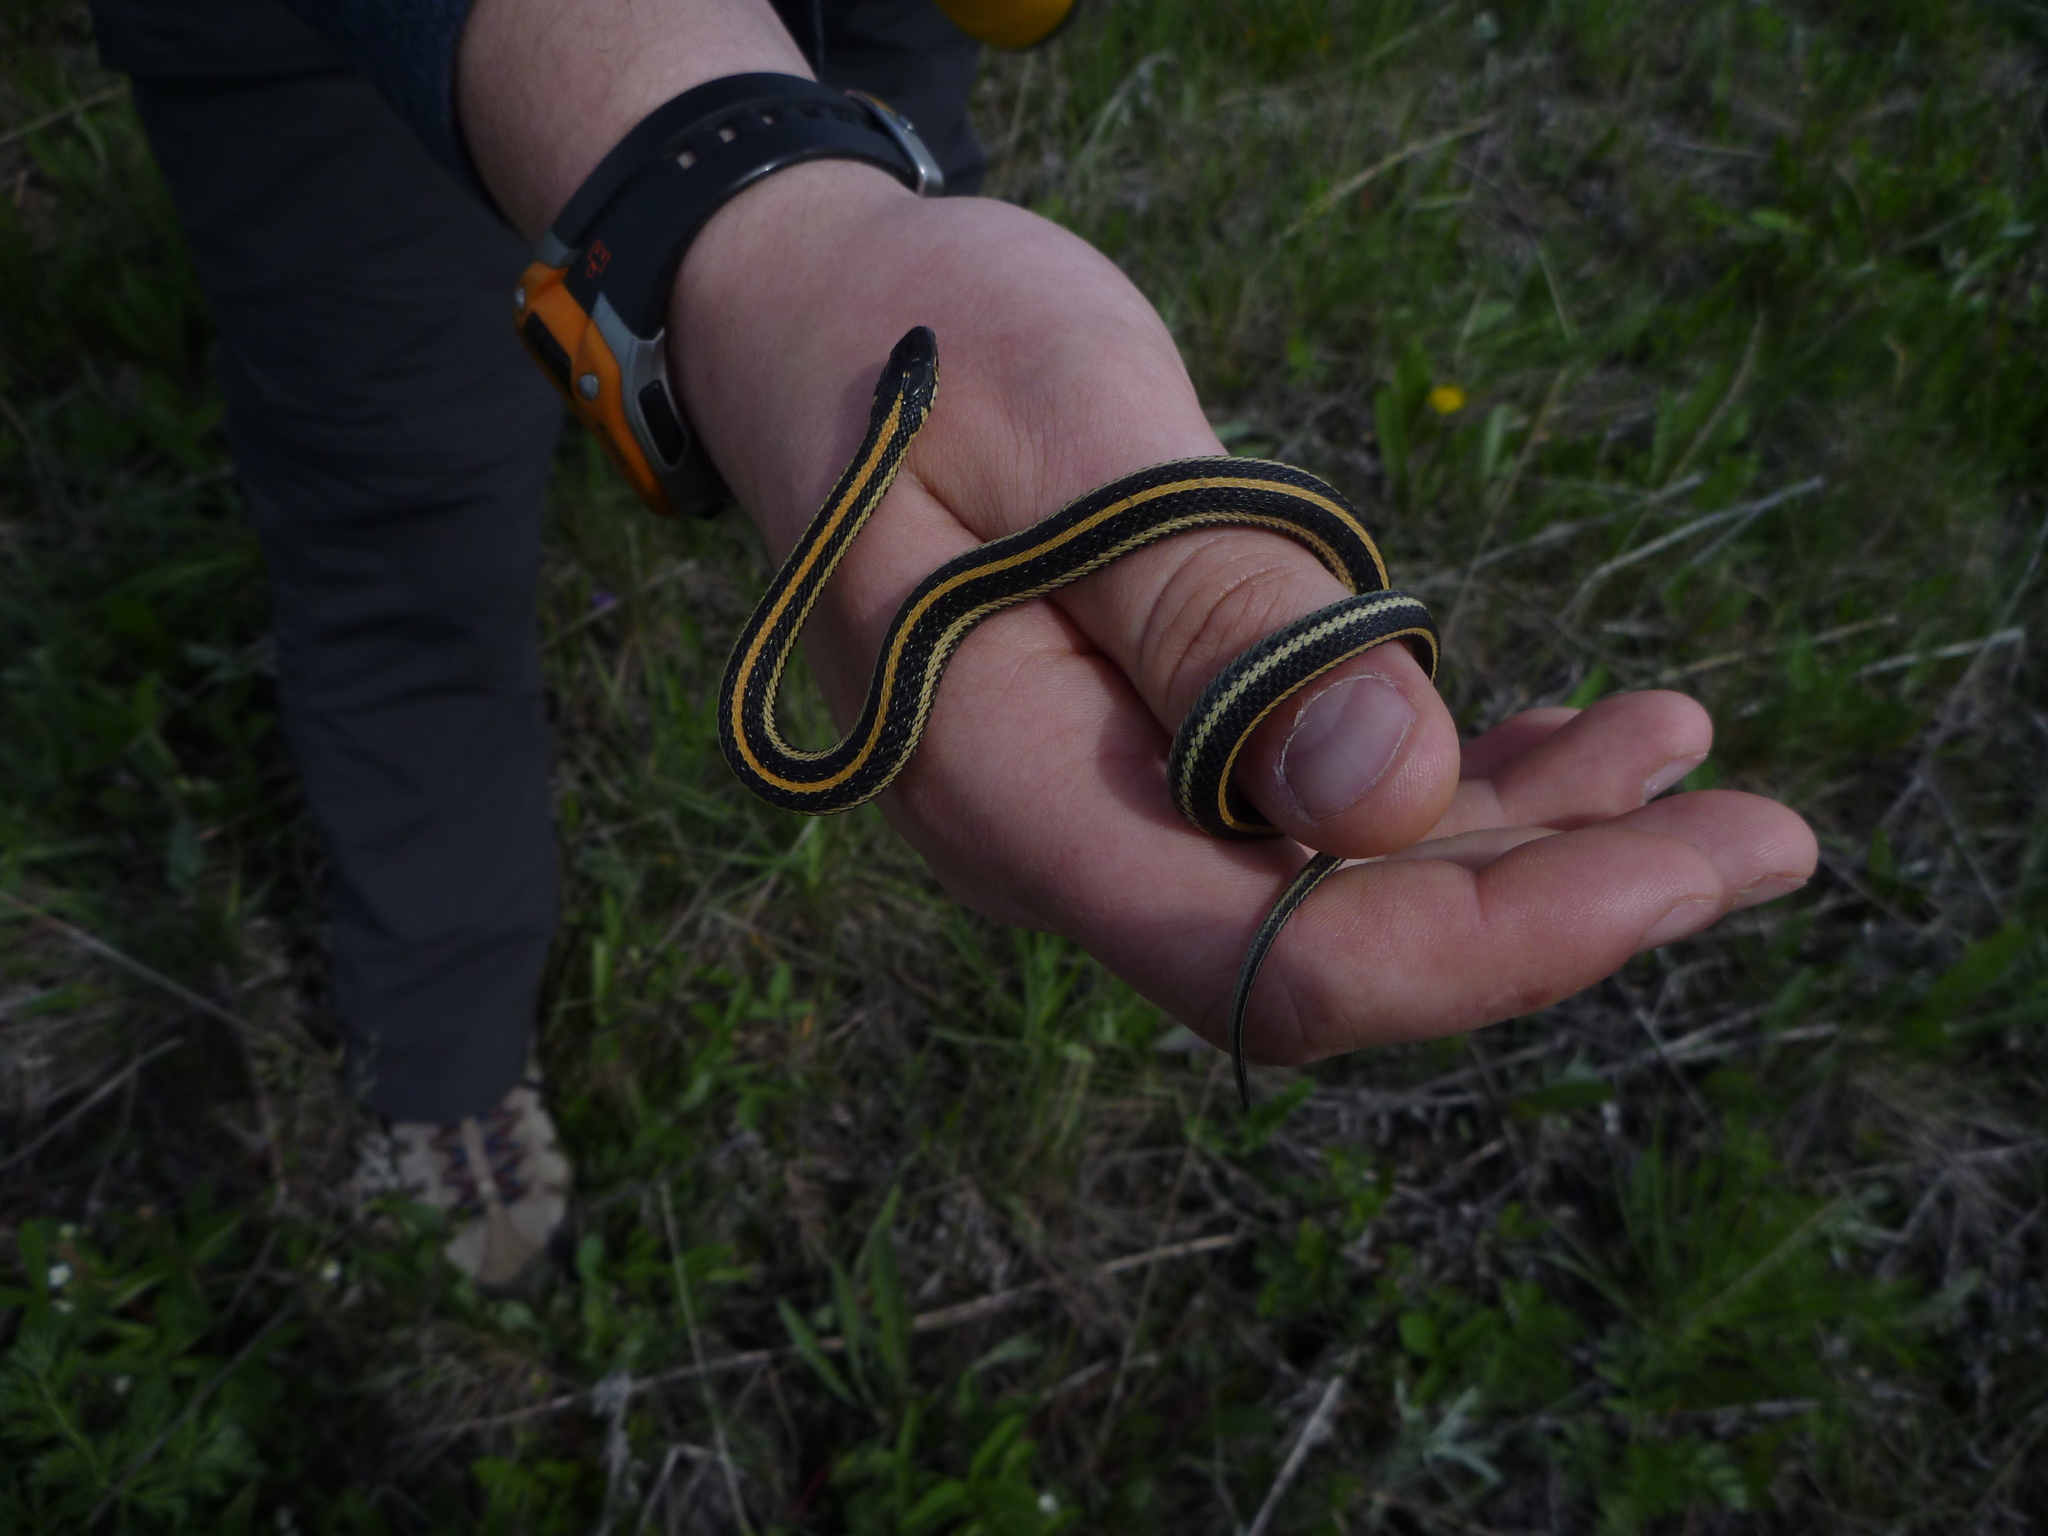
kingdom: Animalia
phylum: Chordata
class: Squamata
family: Colubridae
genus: Thamnophis
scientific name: Thamnophis radix
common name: Plains garter snake
